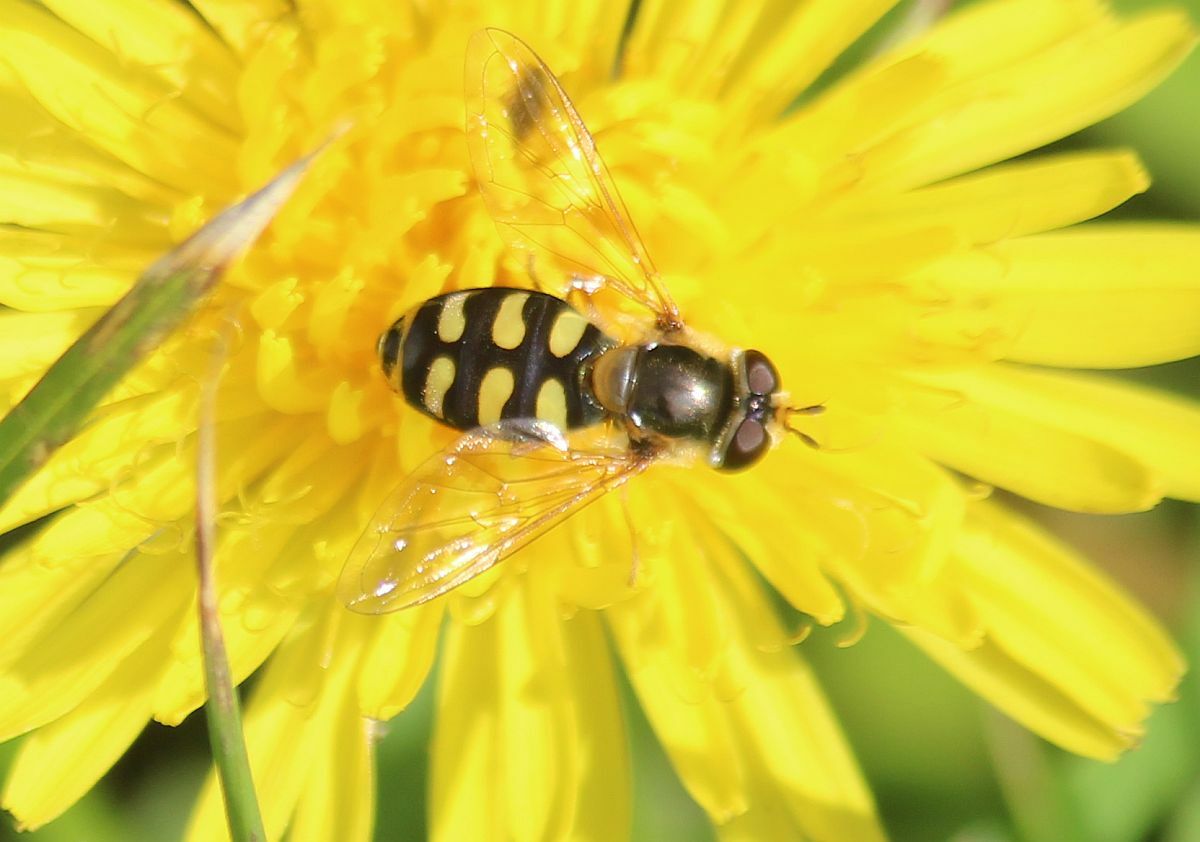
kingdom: Animalia
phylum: Arthropoda
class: Insecta
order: Diptera
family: Syrphidae
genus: Eupeodes
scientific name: Eupeodes luniger
